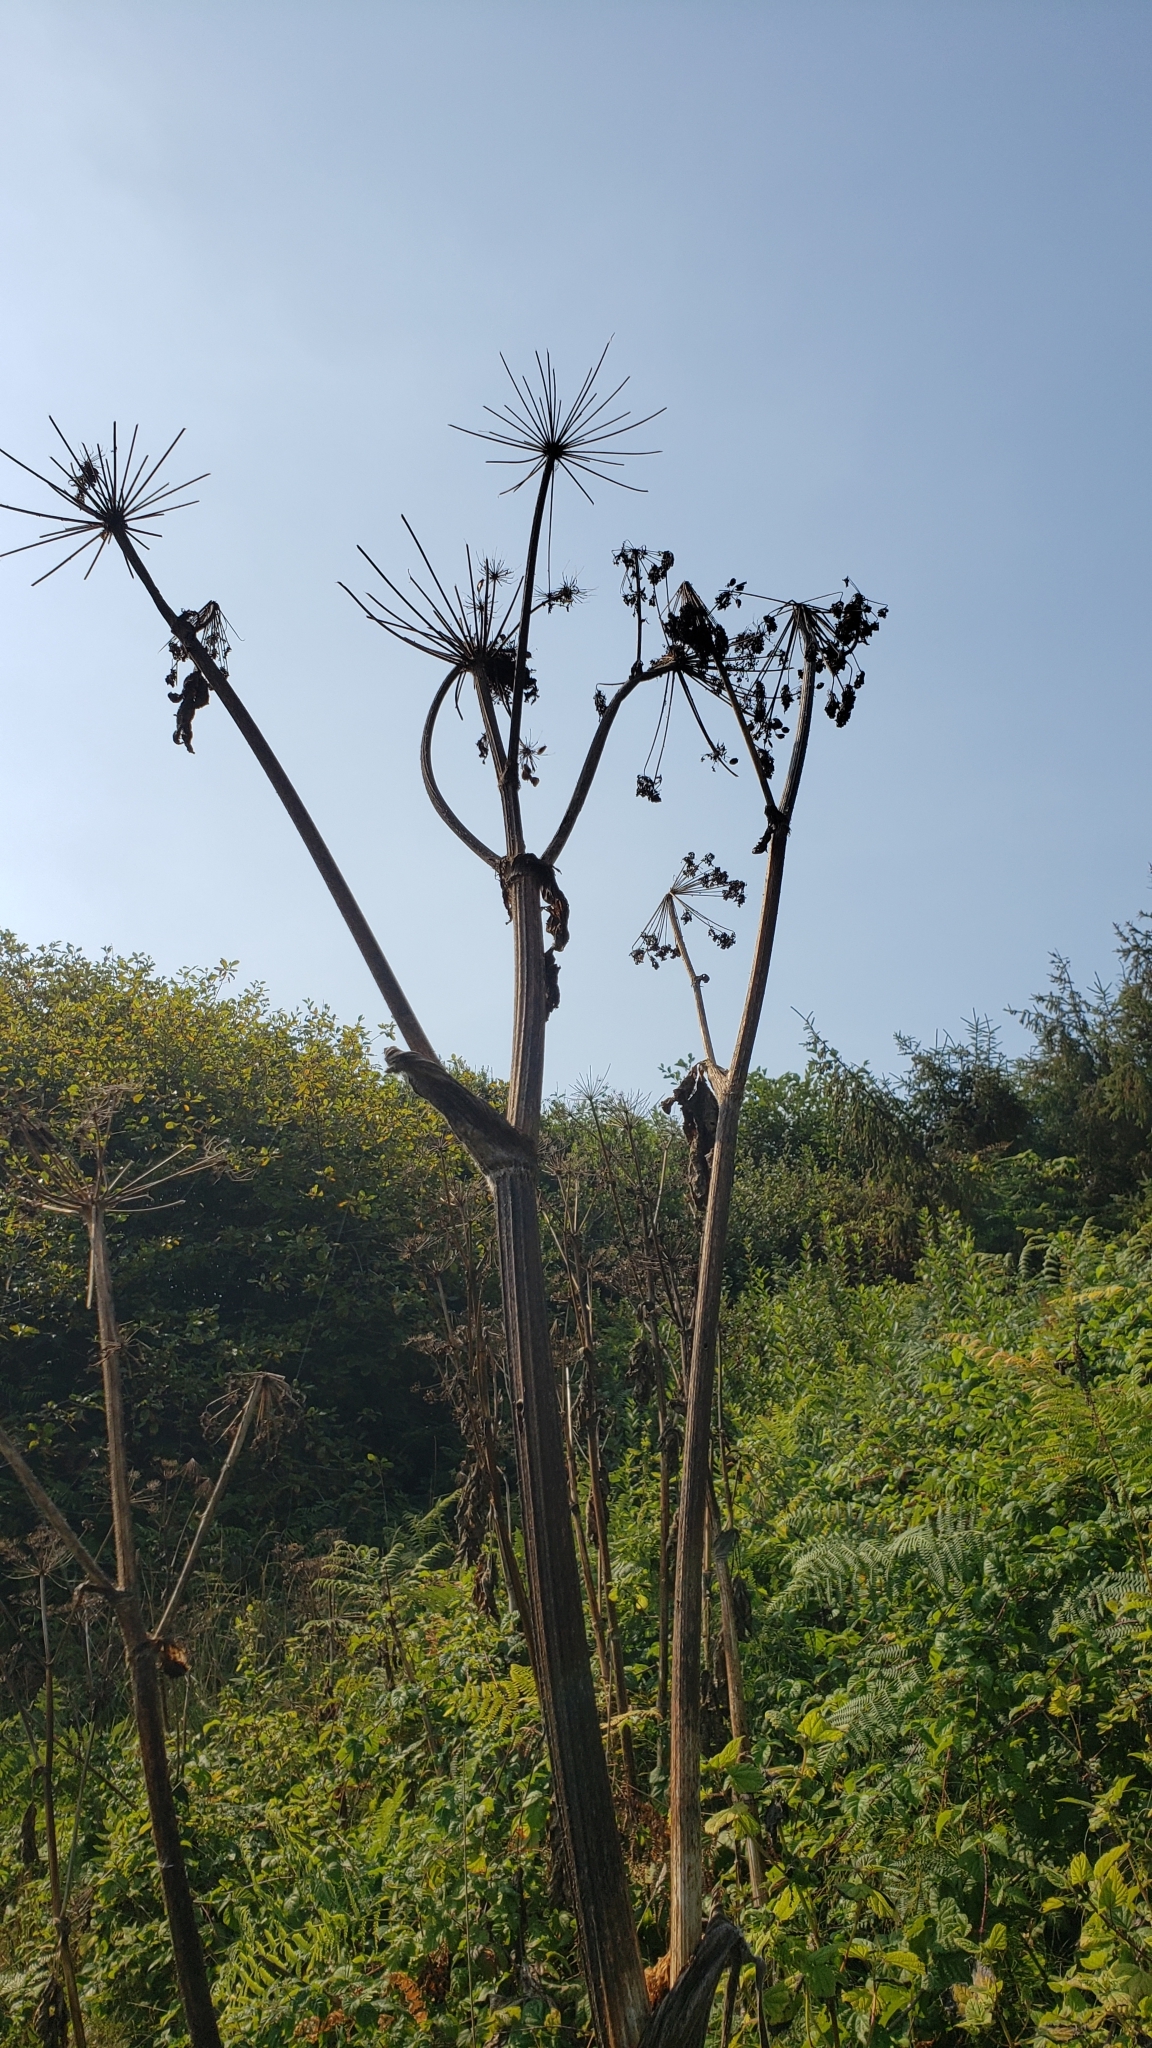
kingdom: Plantae
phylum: Tracheophyta
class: Magnoliopsida
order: Apiales
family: Apiaceae
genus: Heracleum
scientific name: Heracleum maximum
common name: American cow parsnip
